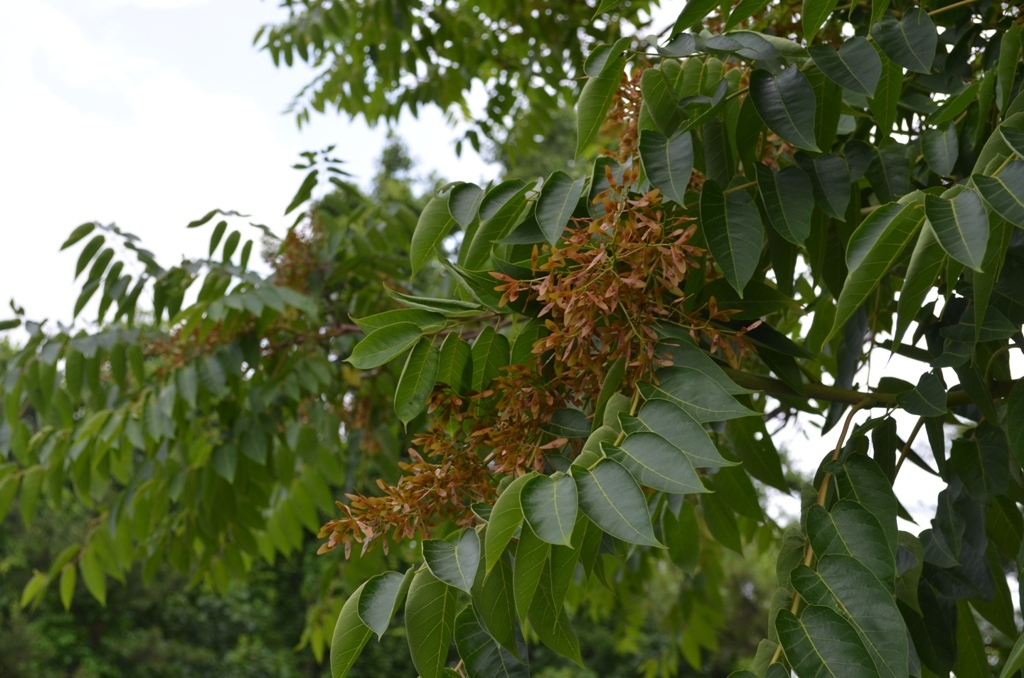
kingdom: Plantae
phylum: Tracheophyta
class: Magnoliopsida
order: Sapindales
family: Simaroubaceae
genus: Ailanthus
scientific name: Ailanthus altissima
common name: Tree-of-heaven
